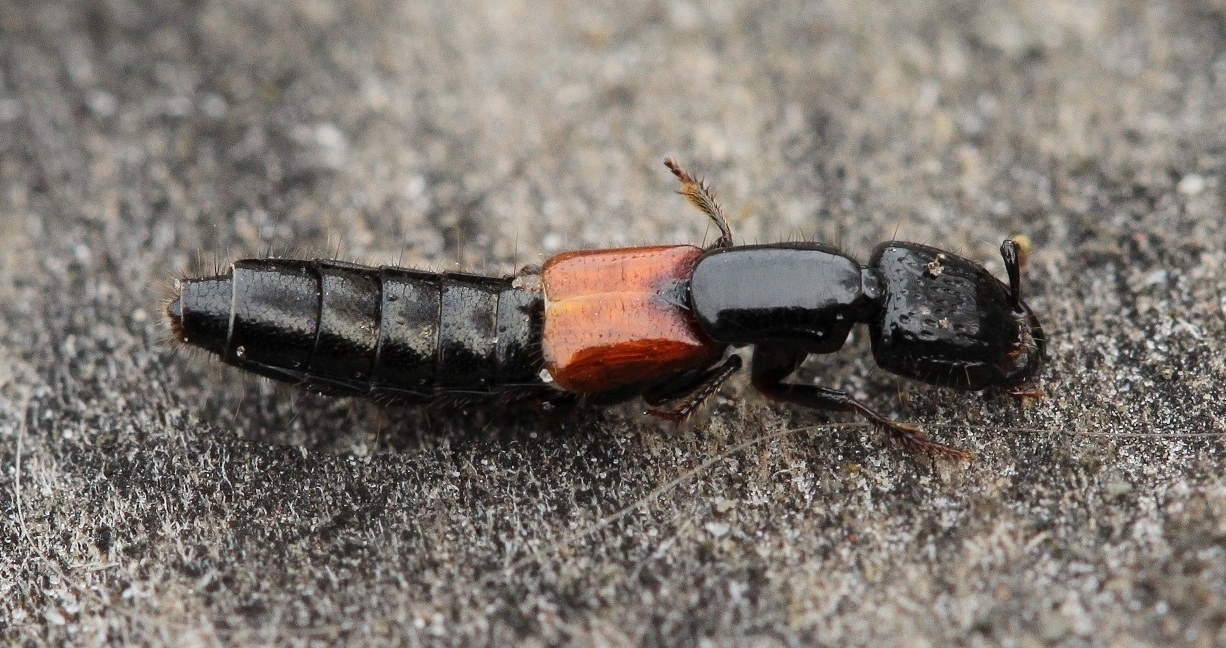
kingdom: Animalia
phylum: Arthropoda
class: Insecta
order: Coleoptera
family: Staphylinidae
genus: Gauropterus
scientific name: Gauropterus fulgidus
